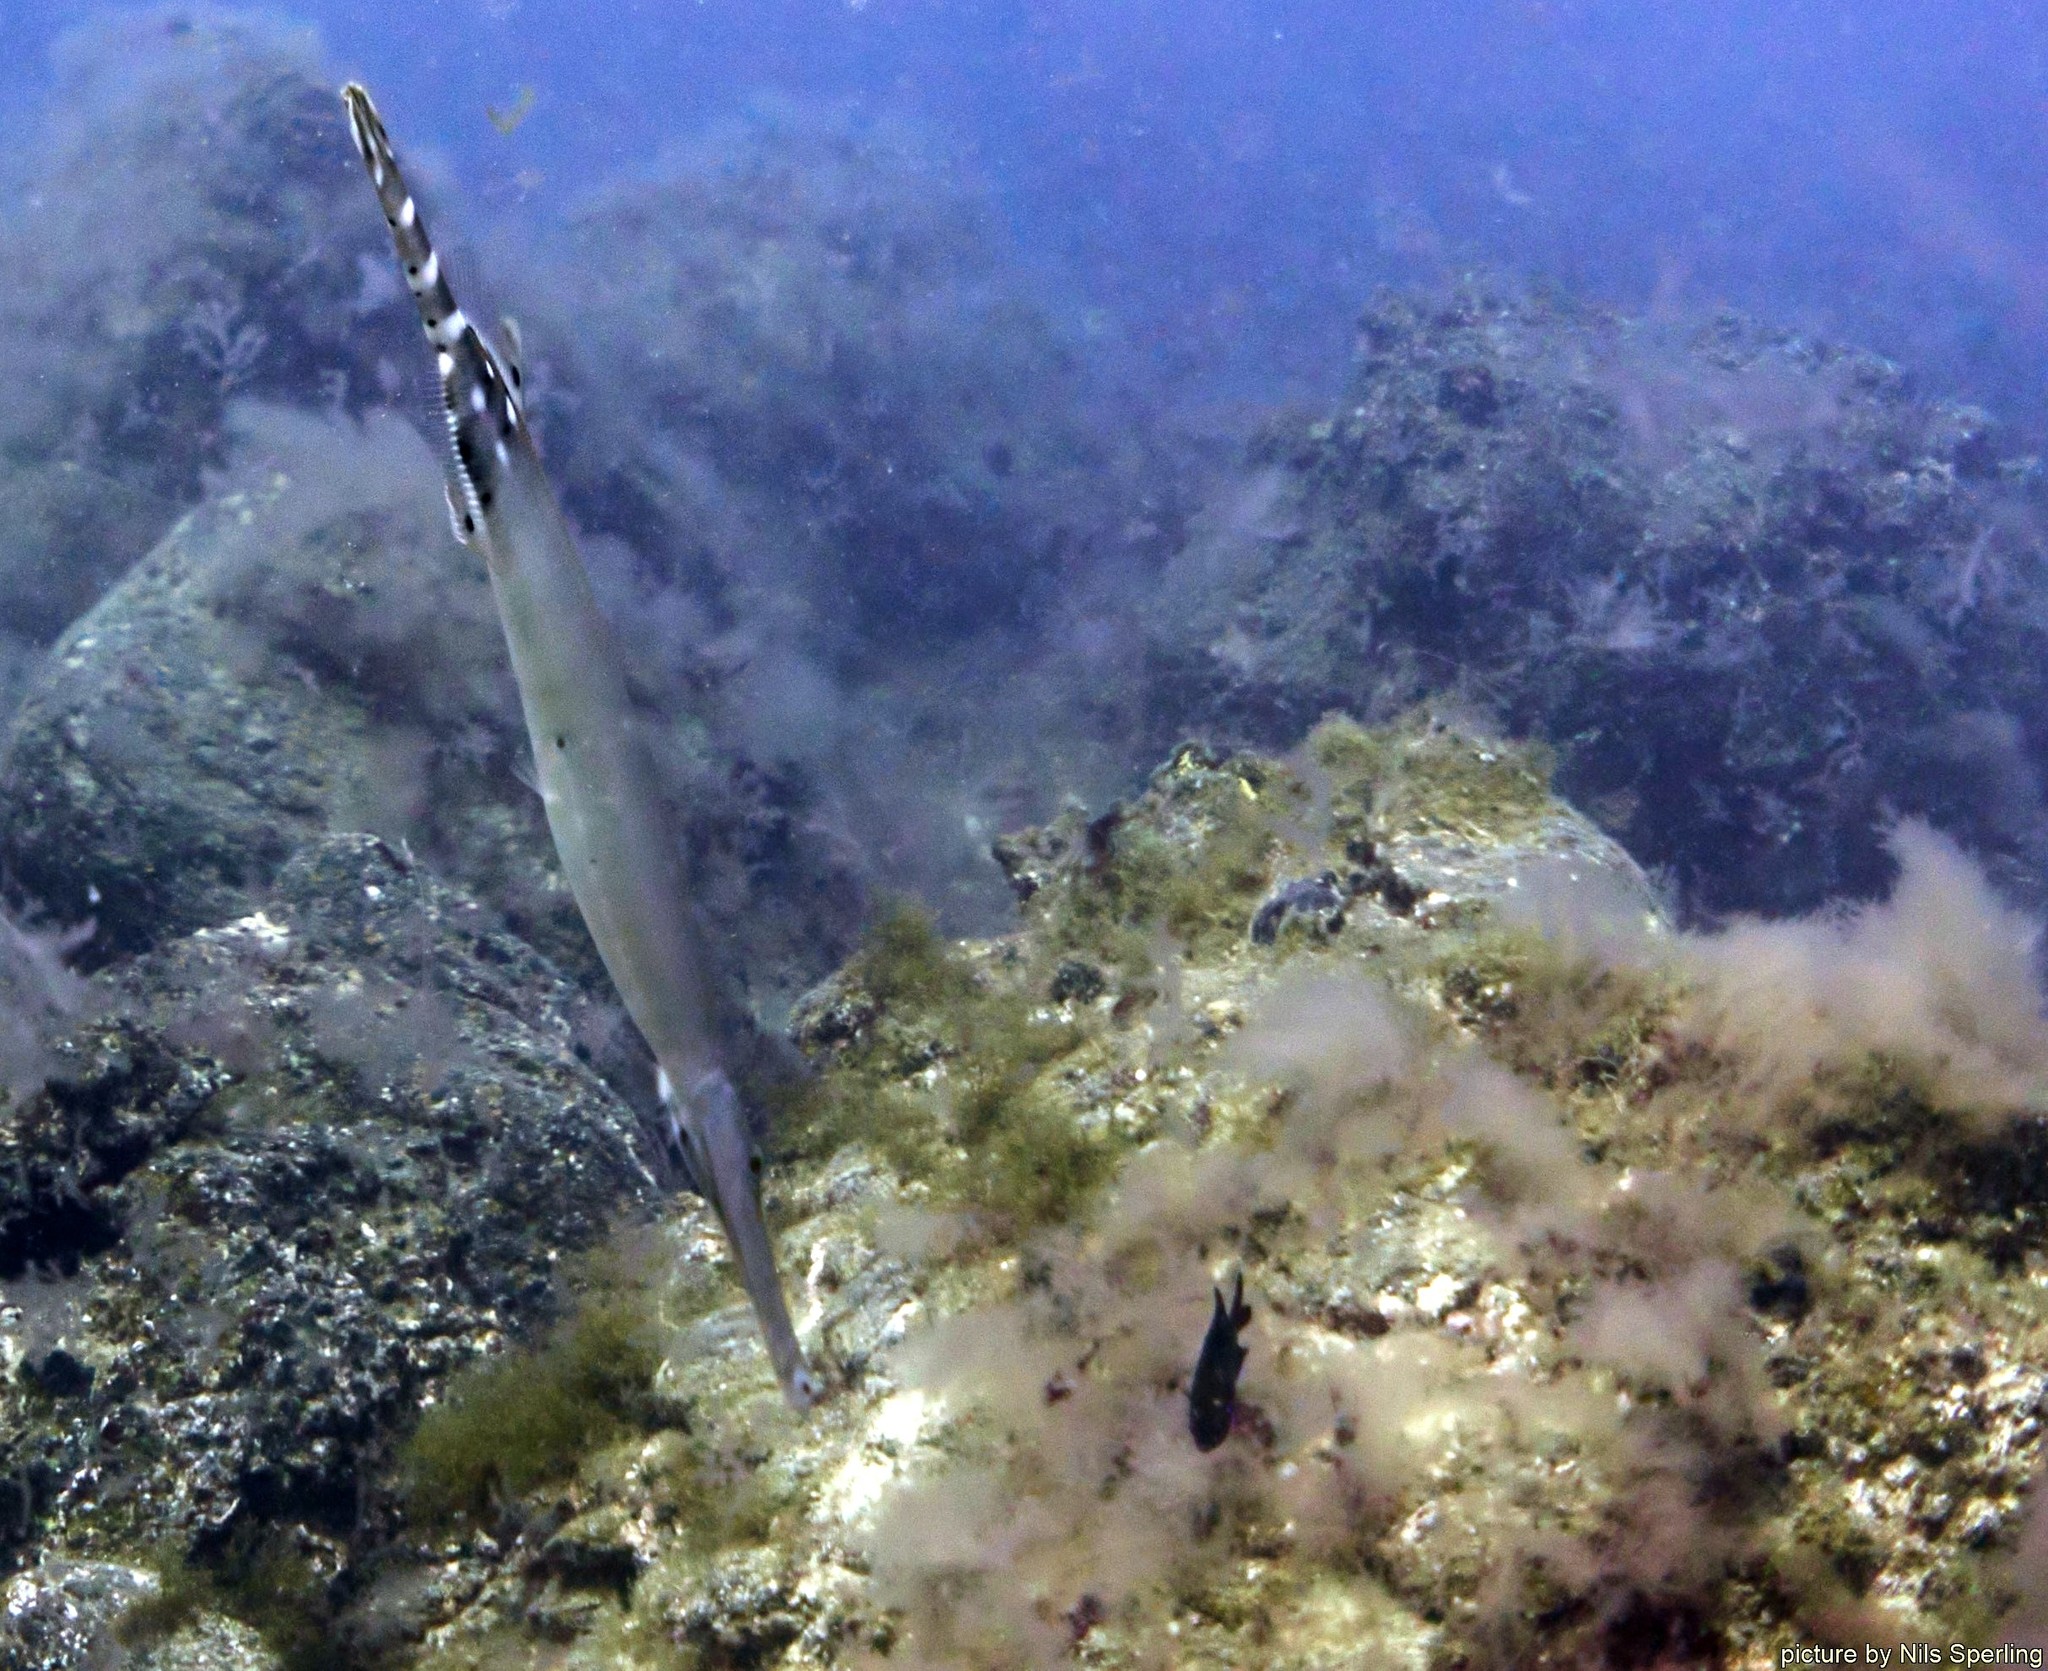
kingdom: Animalia
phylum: Chordata
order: Syngnathiformes
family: Aulostomidae
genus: Aulostomus
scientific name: Aulostomus strigosus
